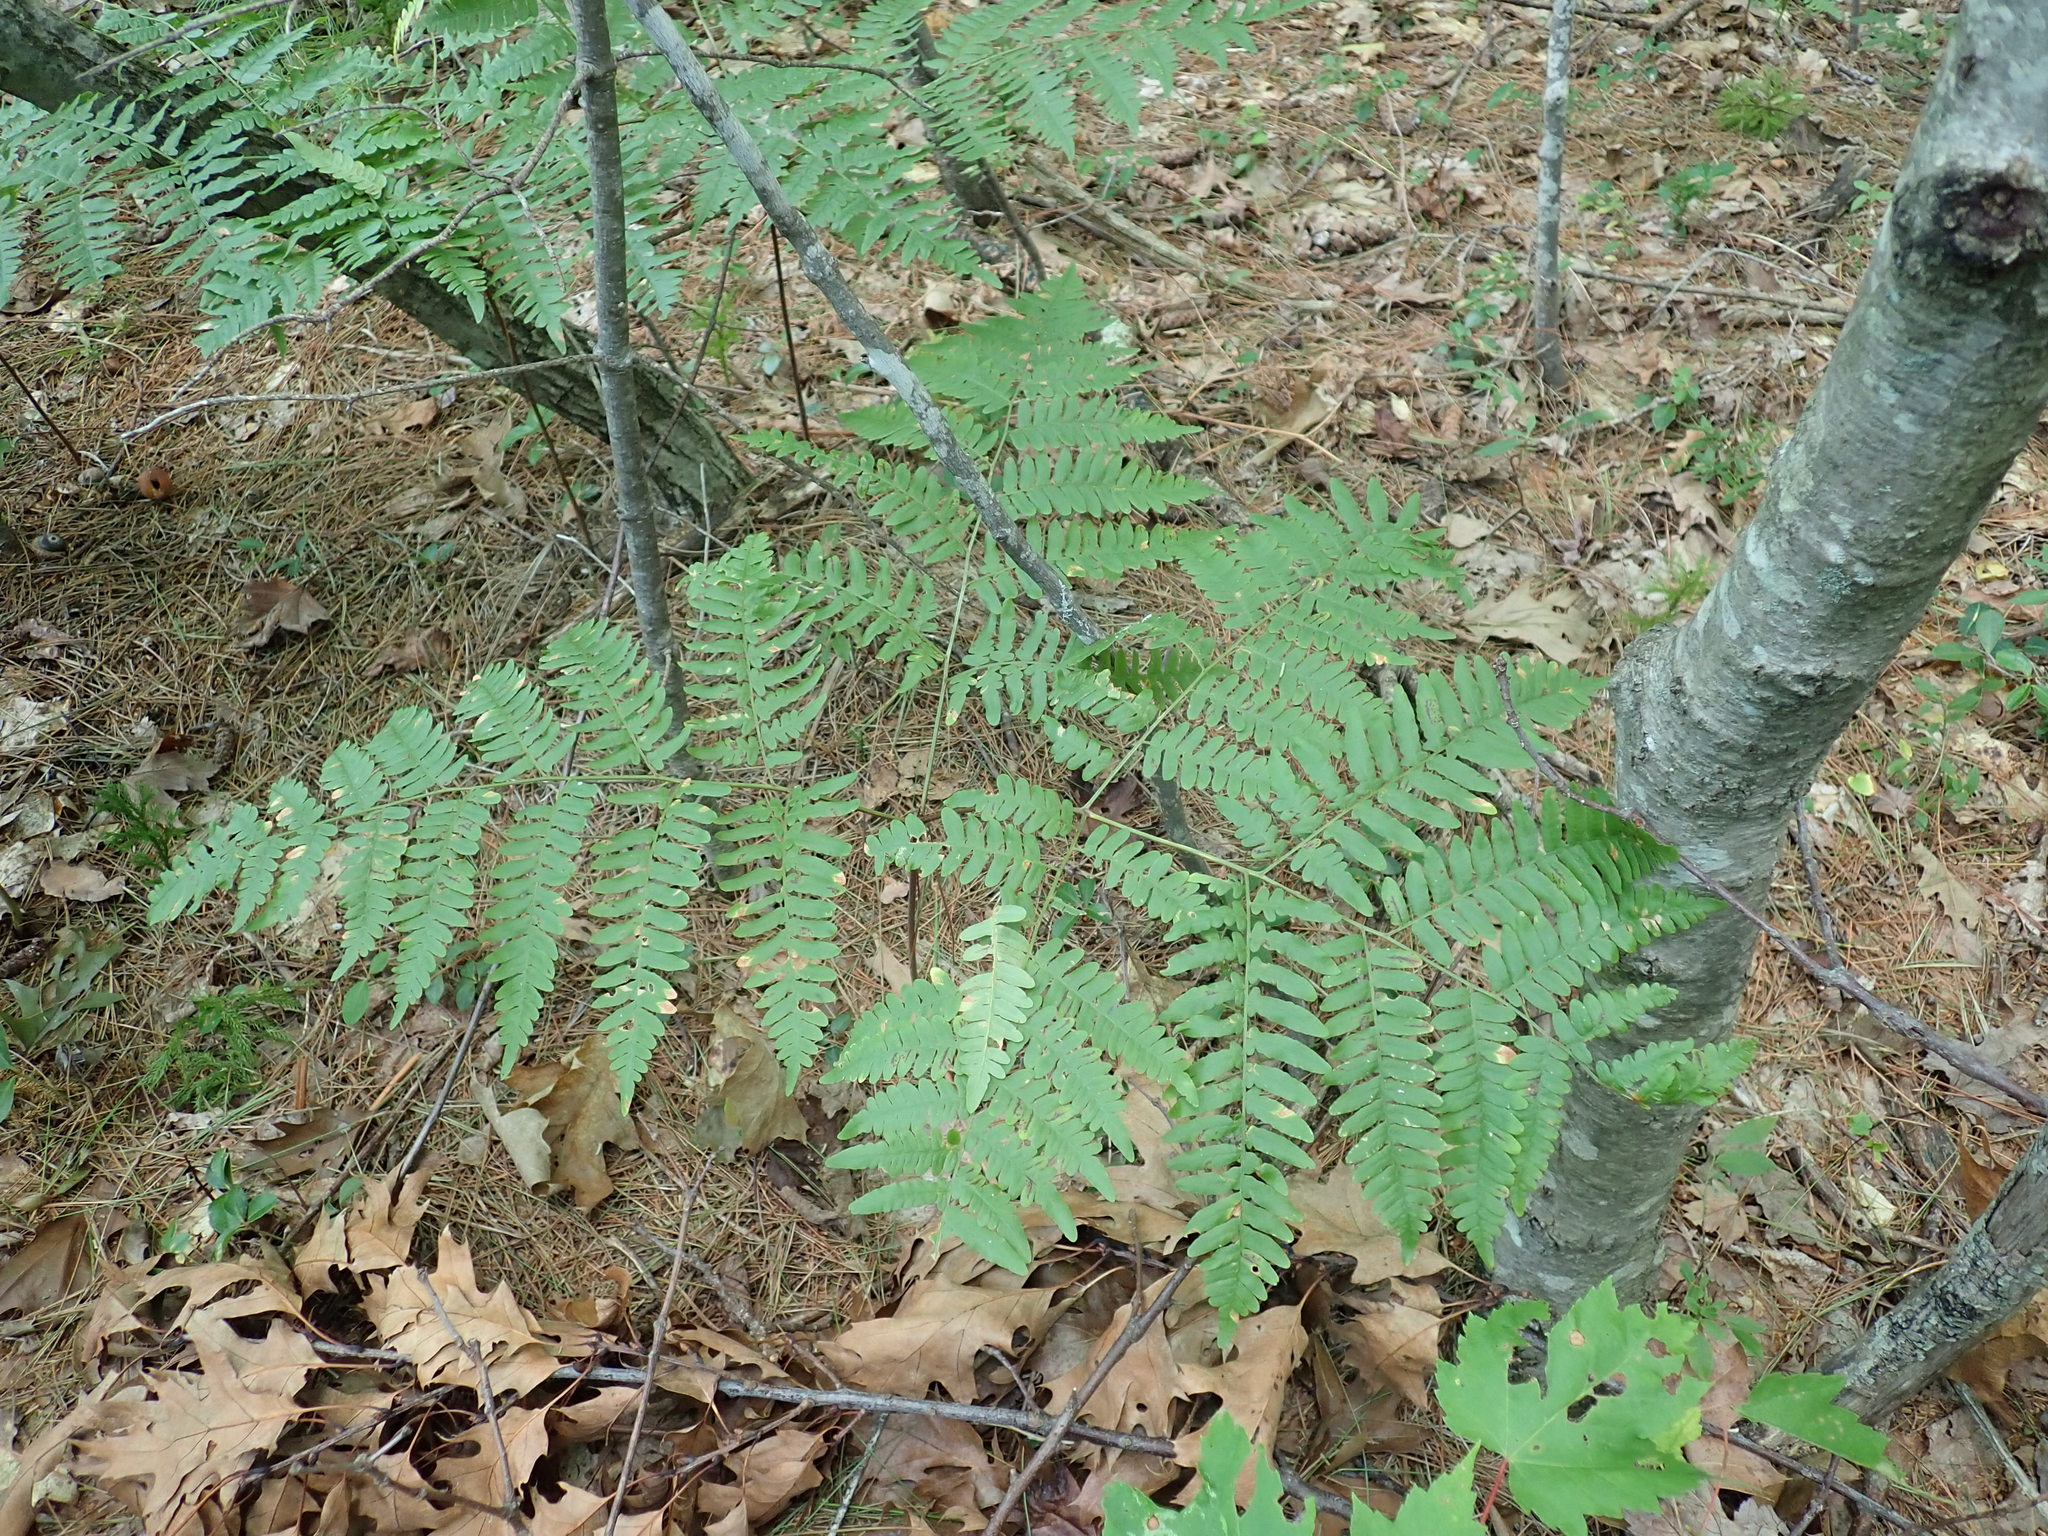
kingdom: Plantae
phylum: Tracheophyta
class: Polypodiopsida
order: Polypodiales
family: Dennstaedtiaceae
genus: Pteridium
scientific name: Pteridium aquilinum
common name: Bracken
